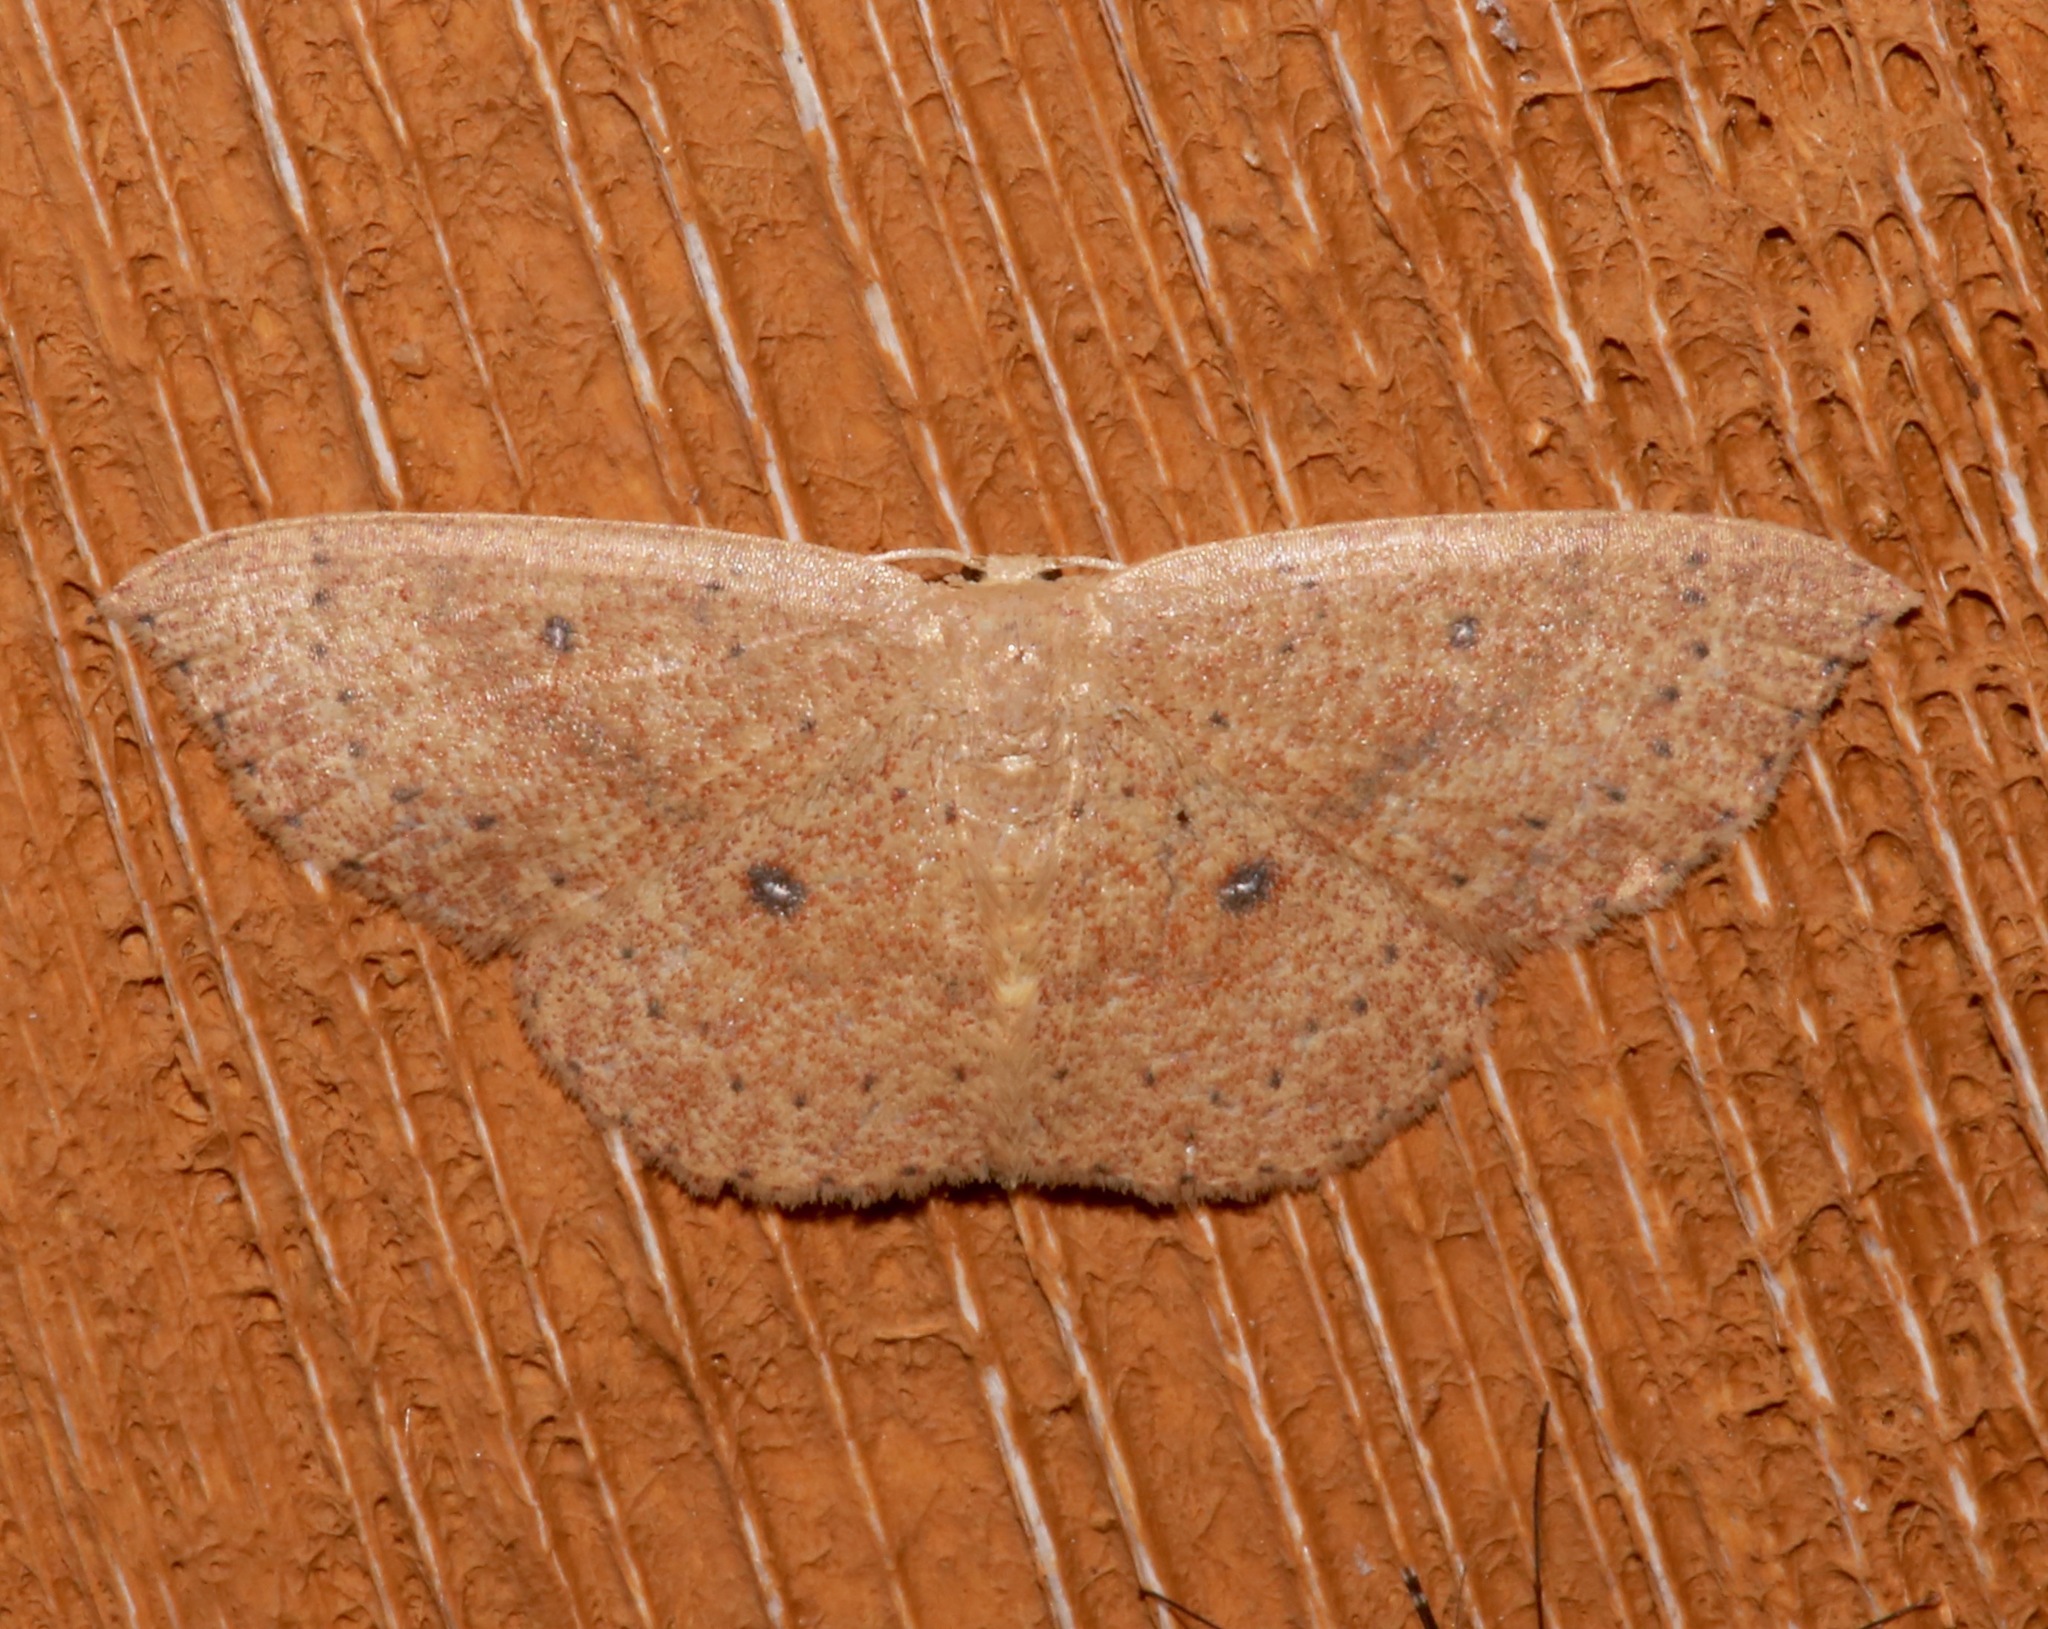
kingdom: Animalia
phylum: Arthropoda
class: Insecta
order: Lepidoptera
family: Geometridae
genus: Cyclophora
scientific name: Cyclophora packardi
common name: Packard's wave
